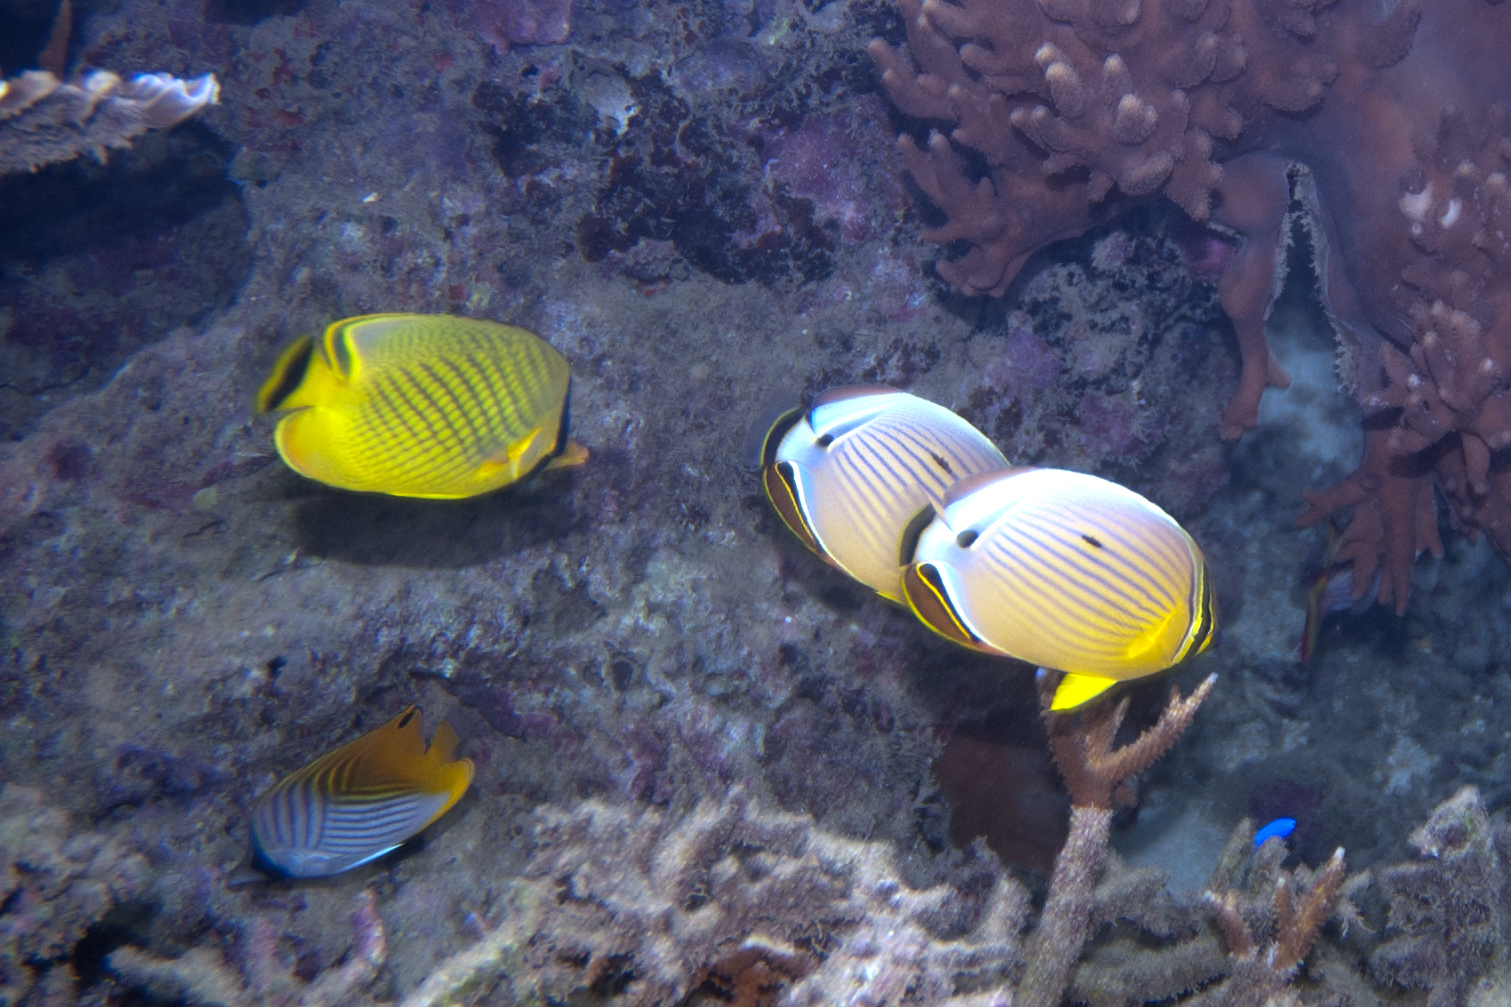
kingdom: Animalia
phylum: Chordata
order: Perciformes
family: Chaetodontidae
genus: Chaetodon
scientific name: Chaetodon rafflesii
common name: Latticed butterflyfish
